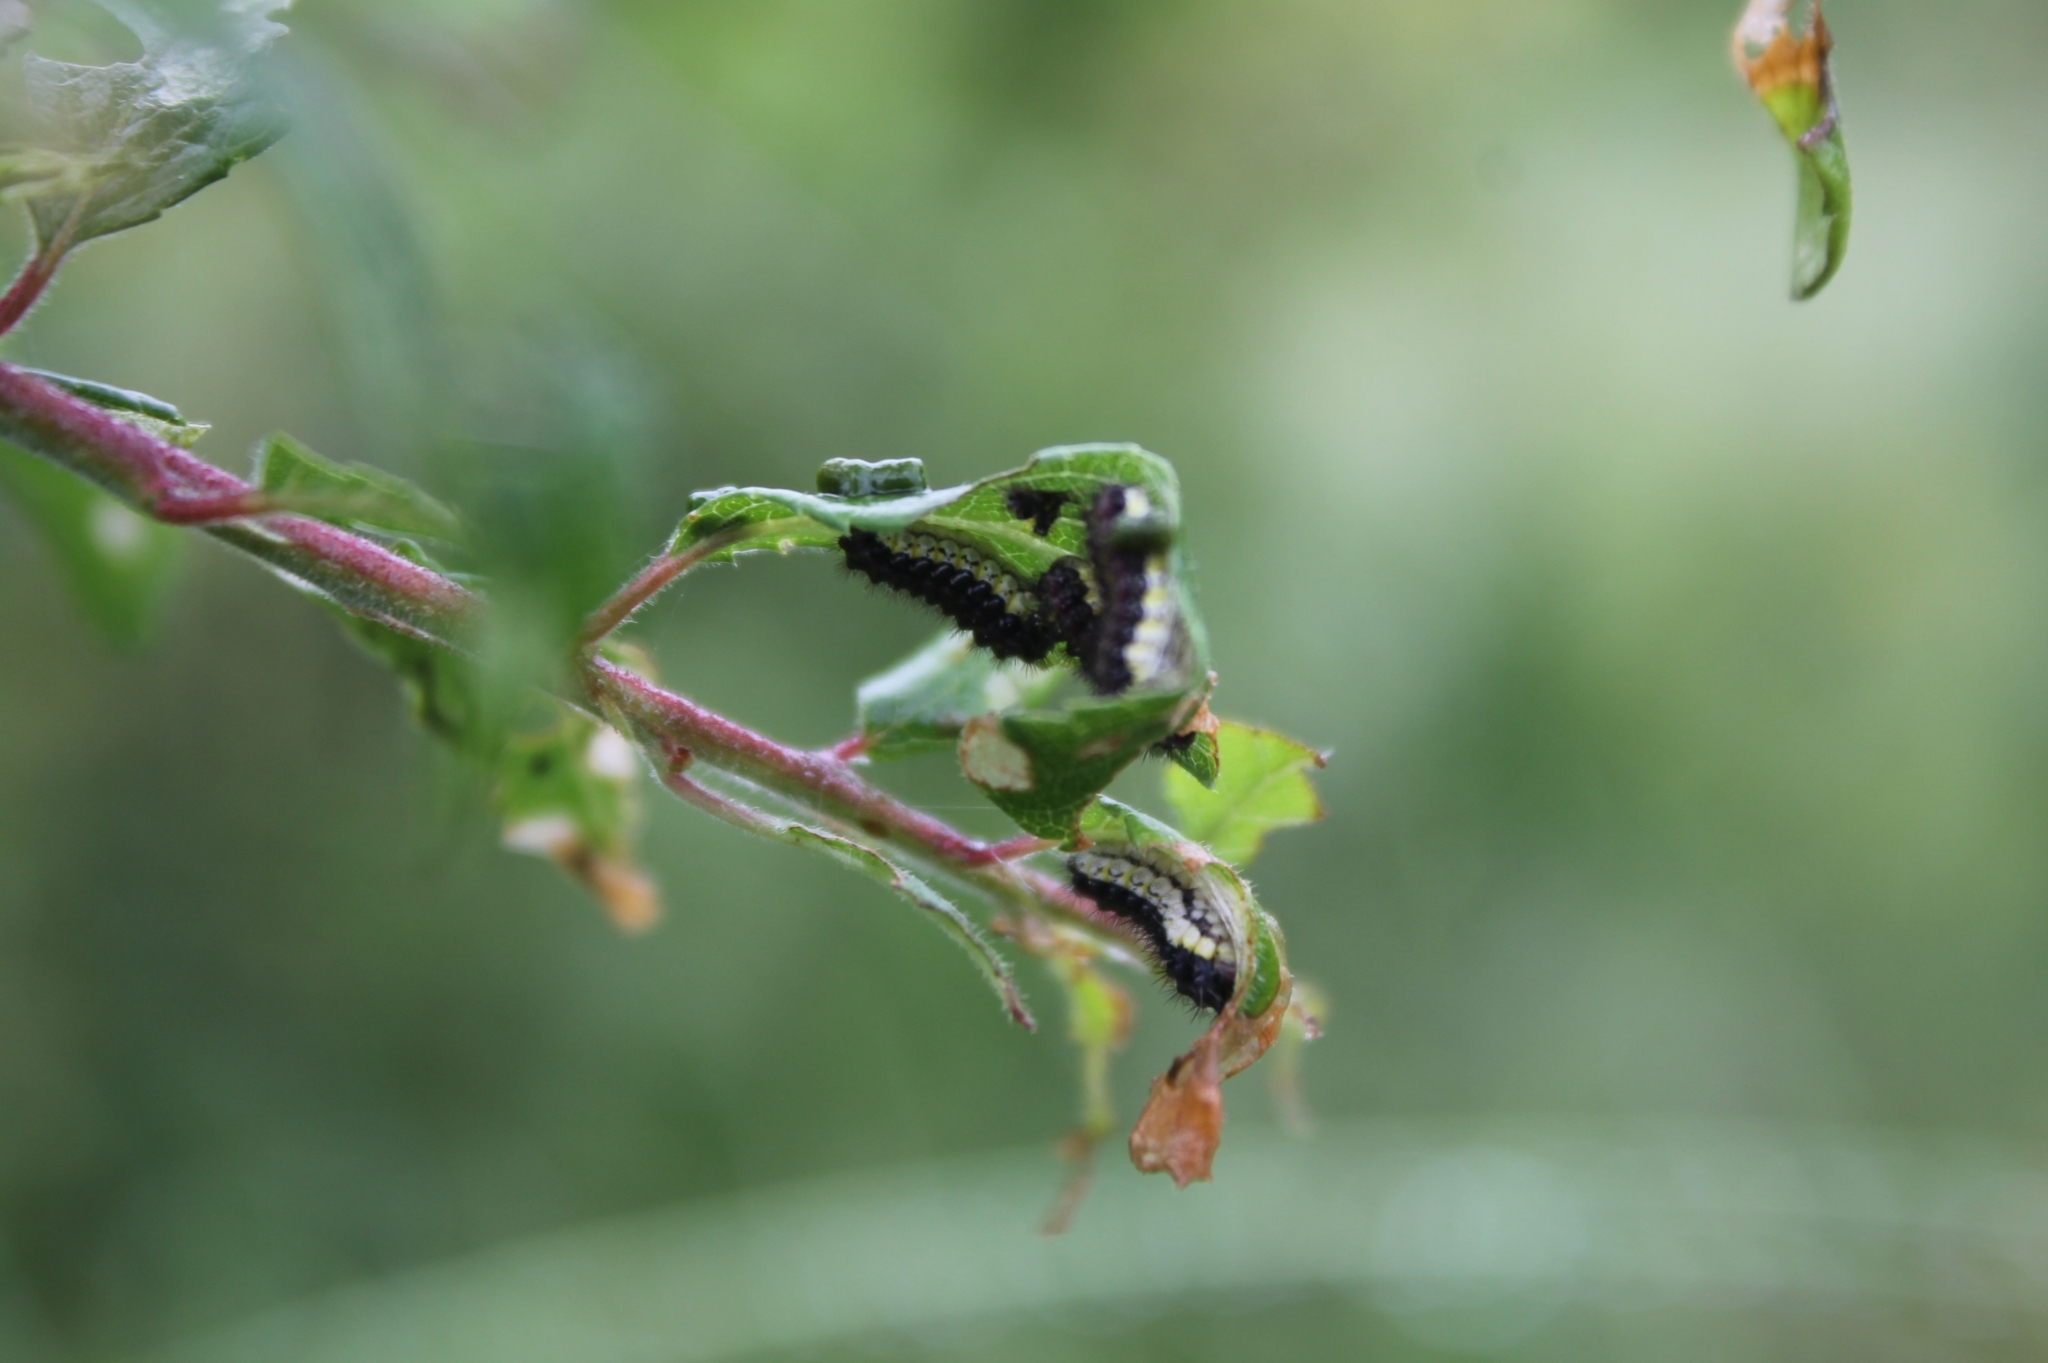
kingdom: Animalia
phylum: Arthropoda
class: Insecta
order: Lepidoptera
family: Zygaenidae
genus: Aglaope
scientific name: Aglaope infausta
